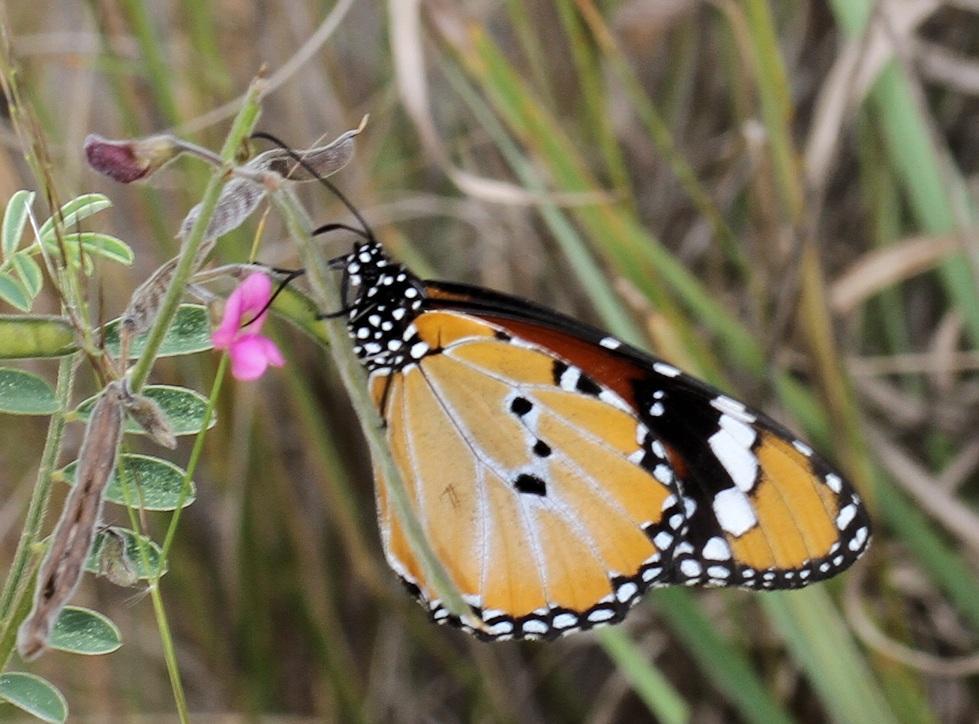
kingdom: Animalia
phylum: Arthropoda
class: Insecta
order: Lepidoptera
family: Nymphalidae
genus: Danaus
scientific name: Danaus chrysippus
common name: Plain tiger
